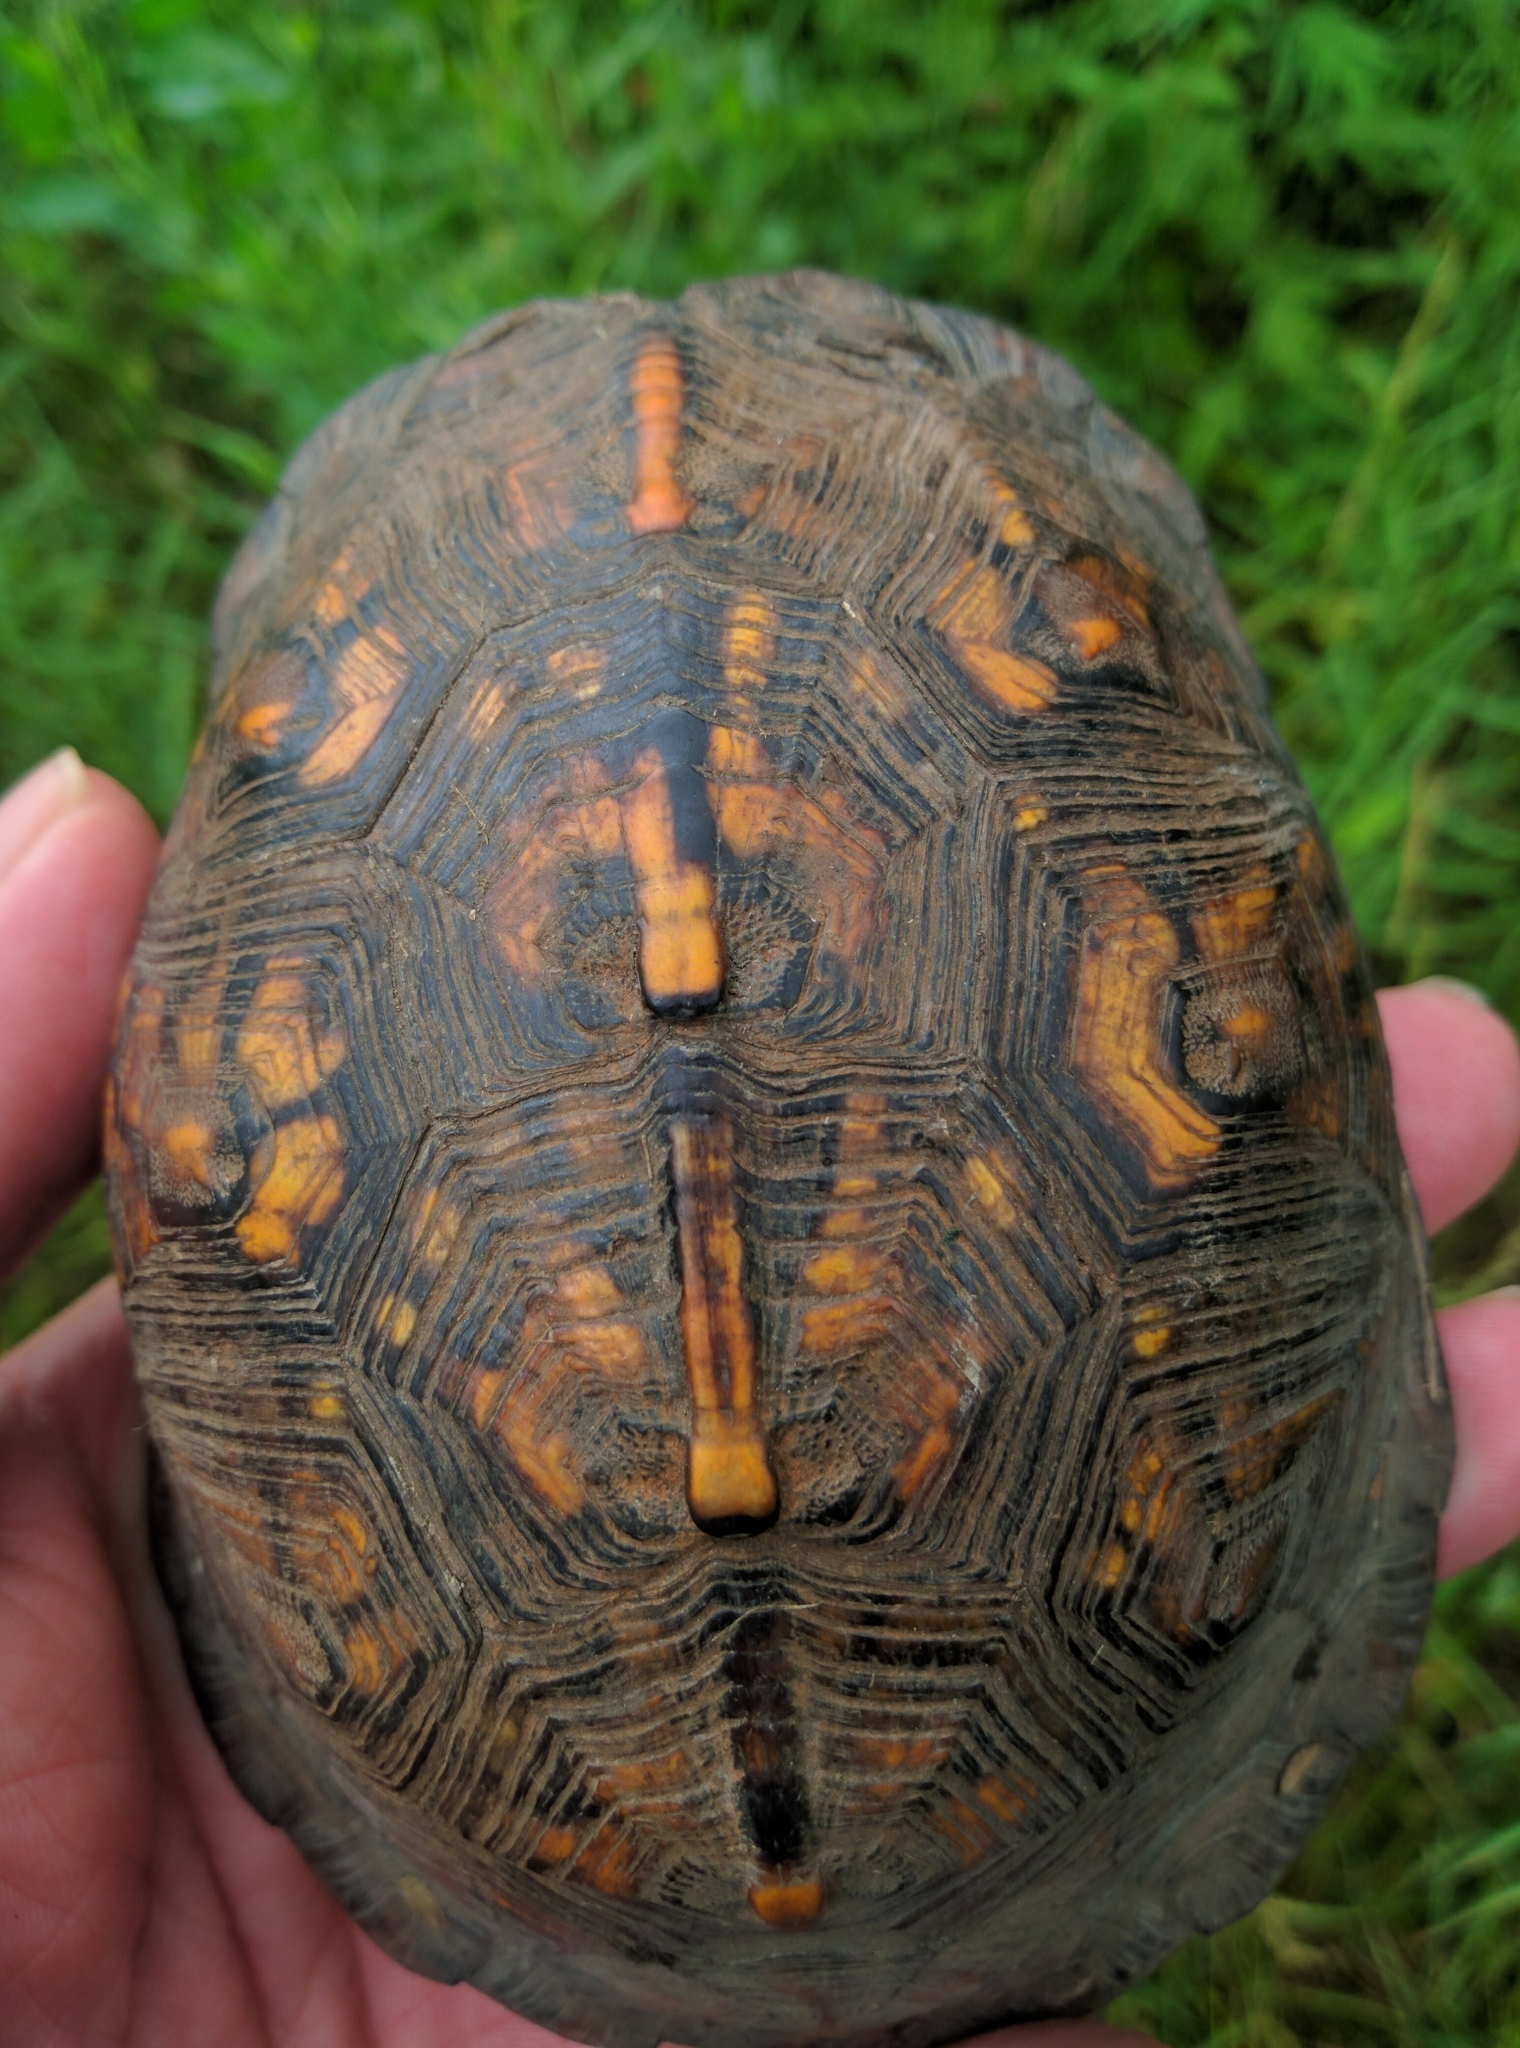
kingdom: Animalia
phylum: Chordata
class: Testudines
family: Emydidae
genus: Terrapene
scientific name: Terrapene carolina
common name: Common box turtle
